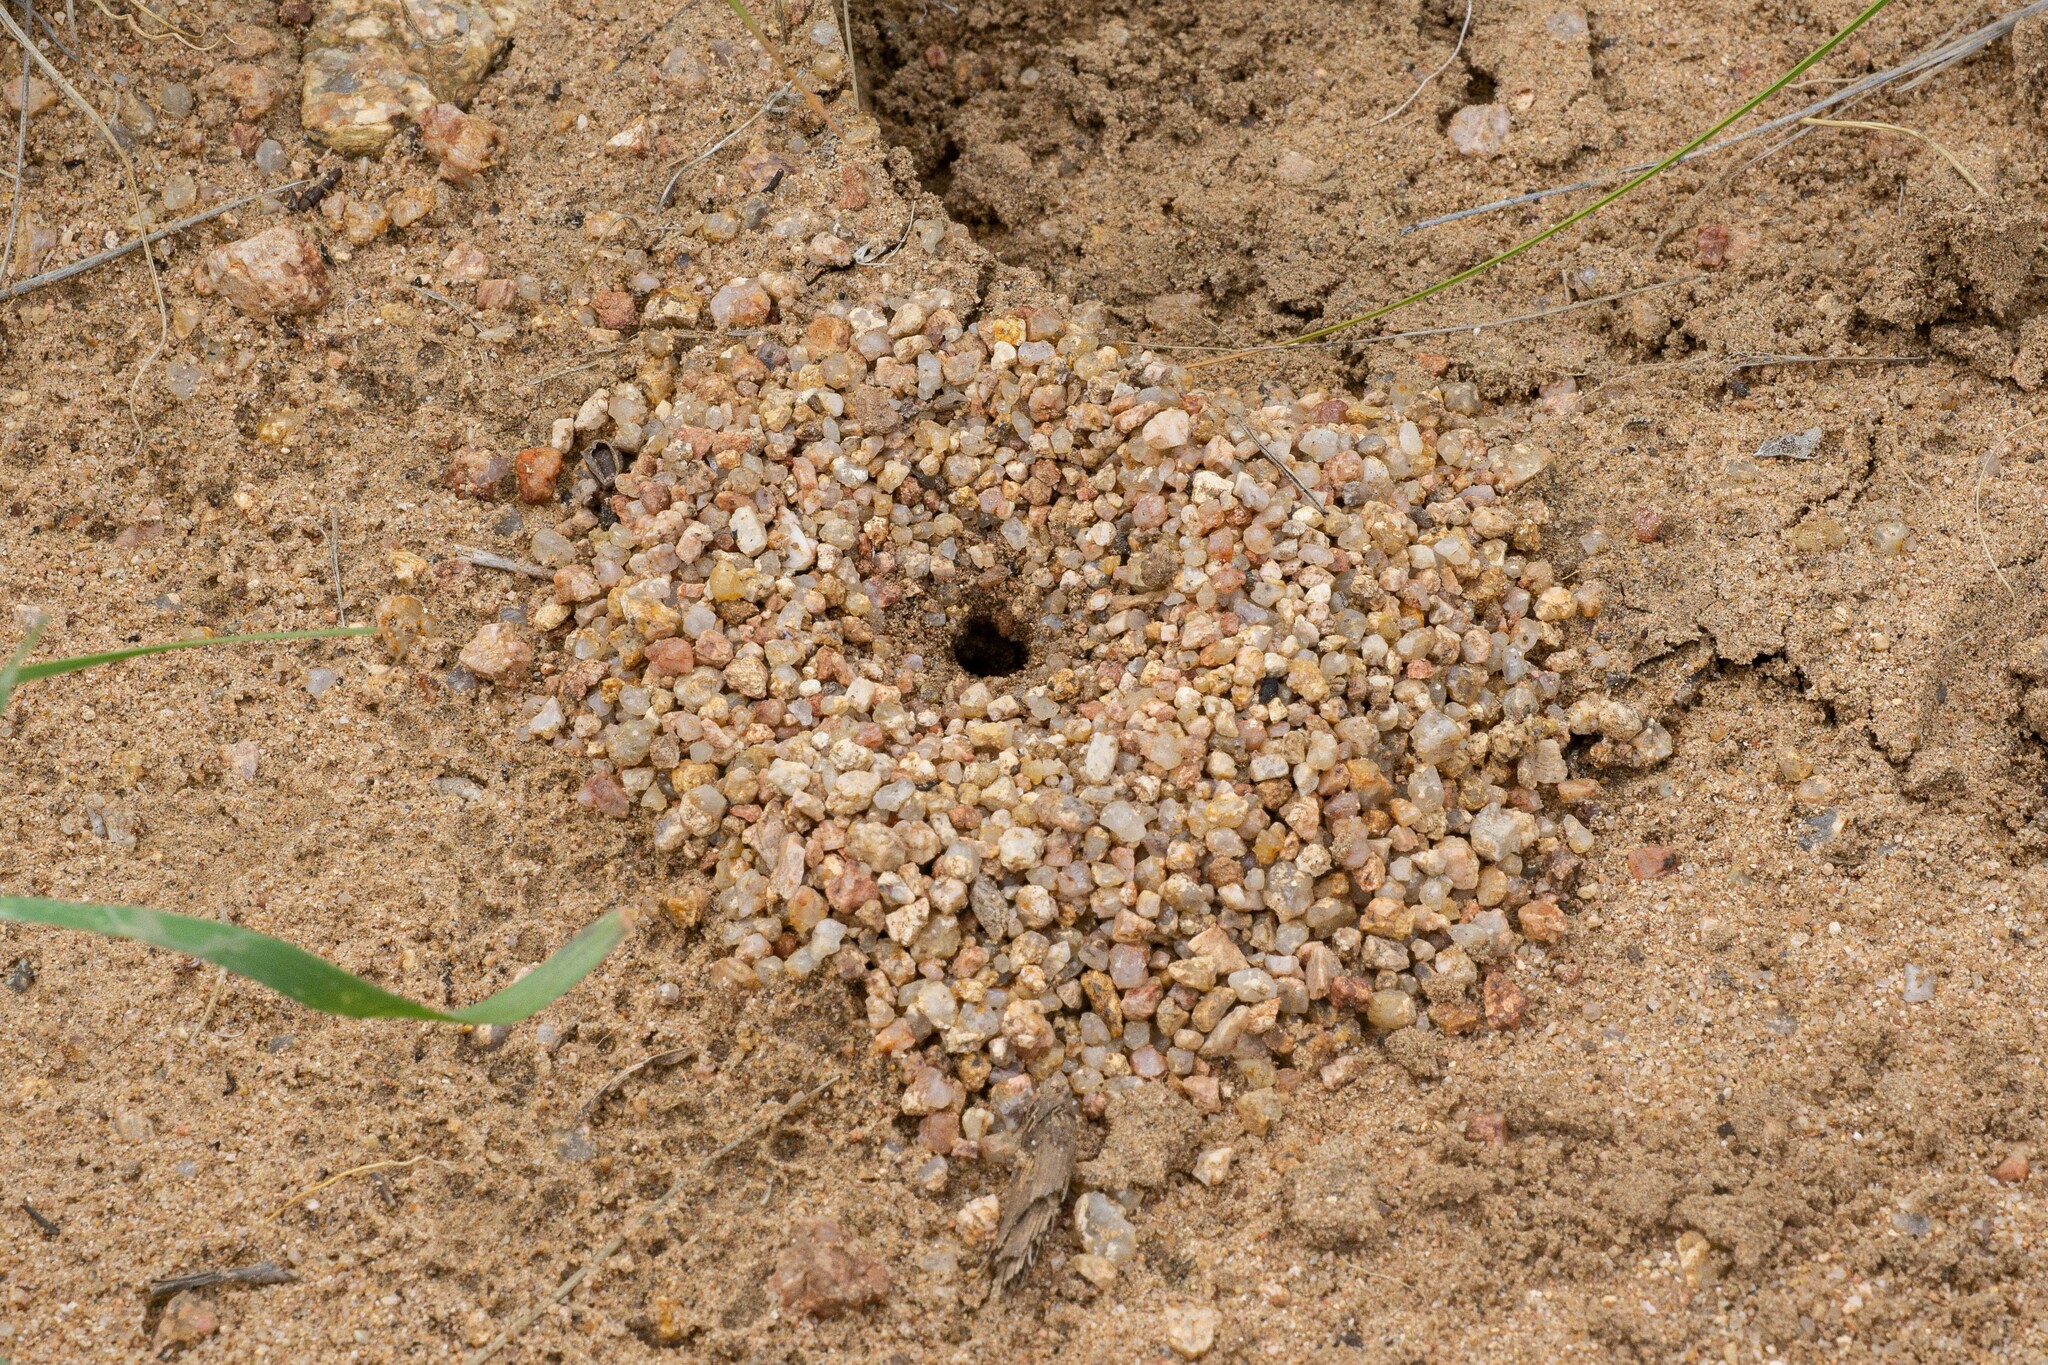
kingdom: Animalia
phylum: Arthropoda
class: Insecta
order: Hymenoptera
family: Formicidae
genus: Myrmecocystus
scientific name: Myrmecocystus navajo
